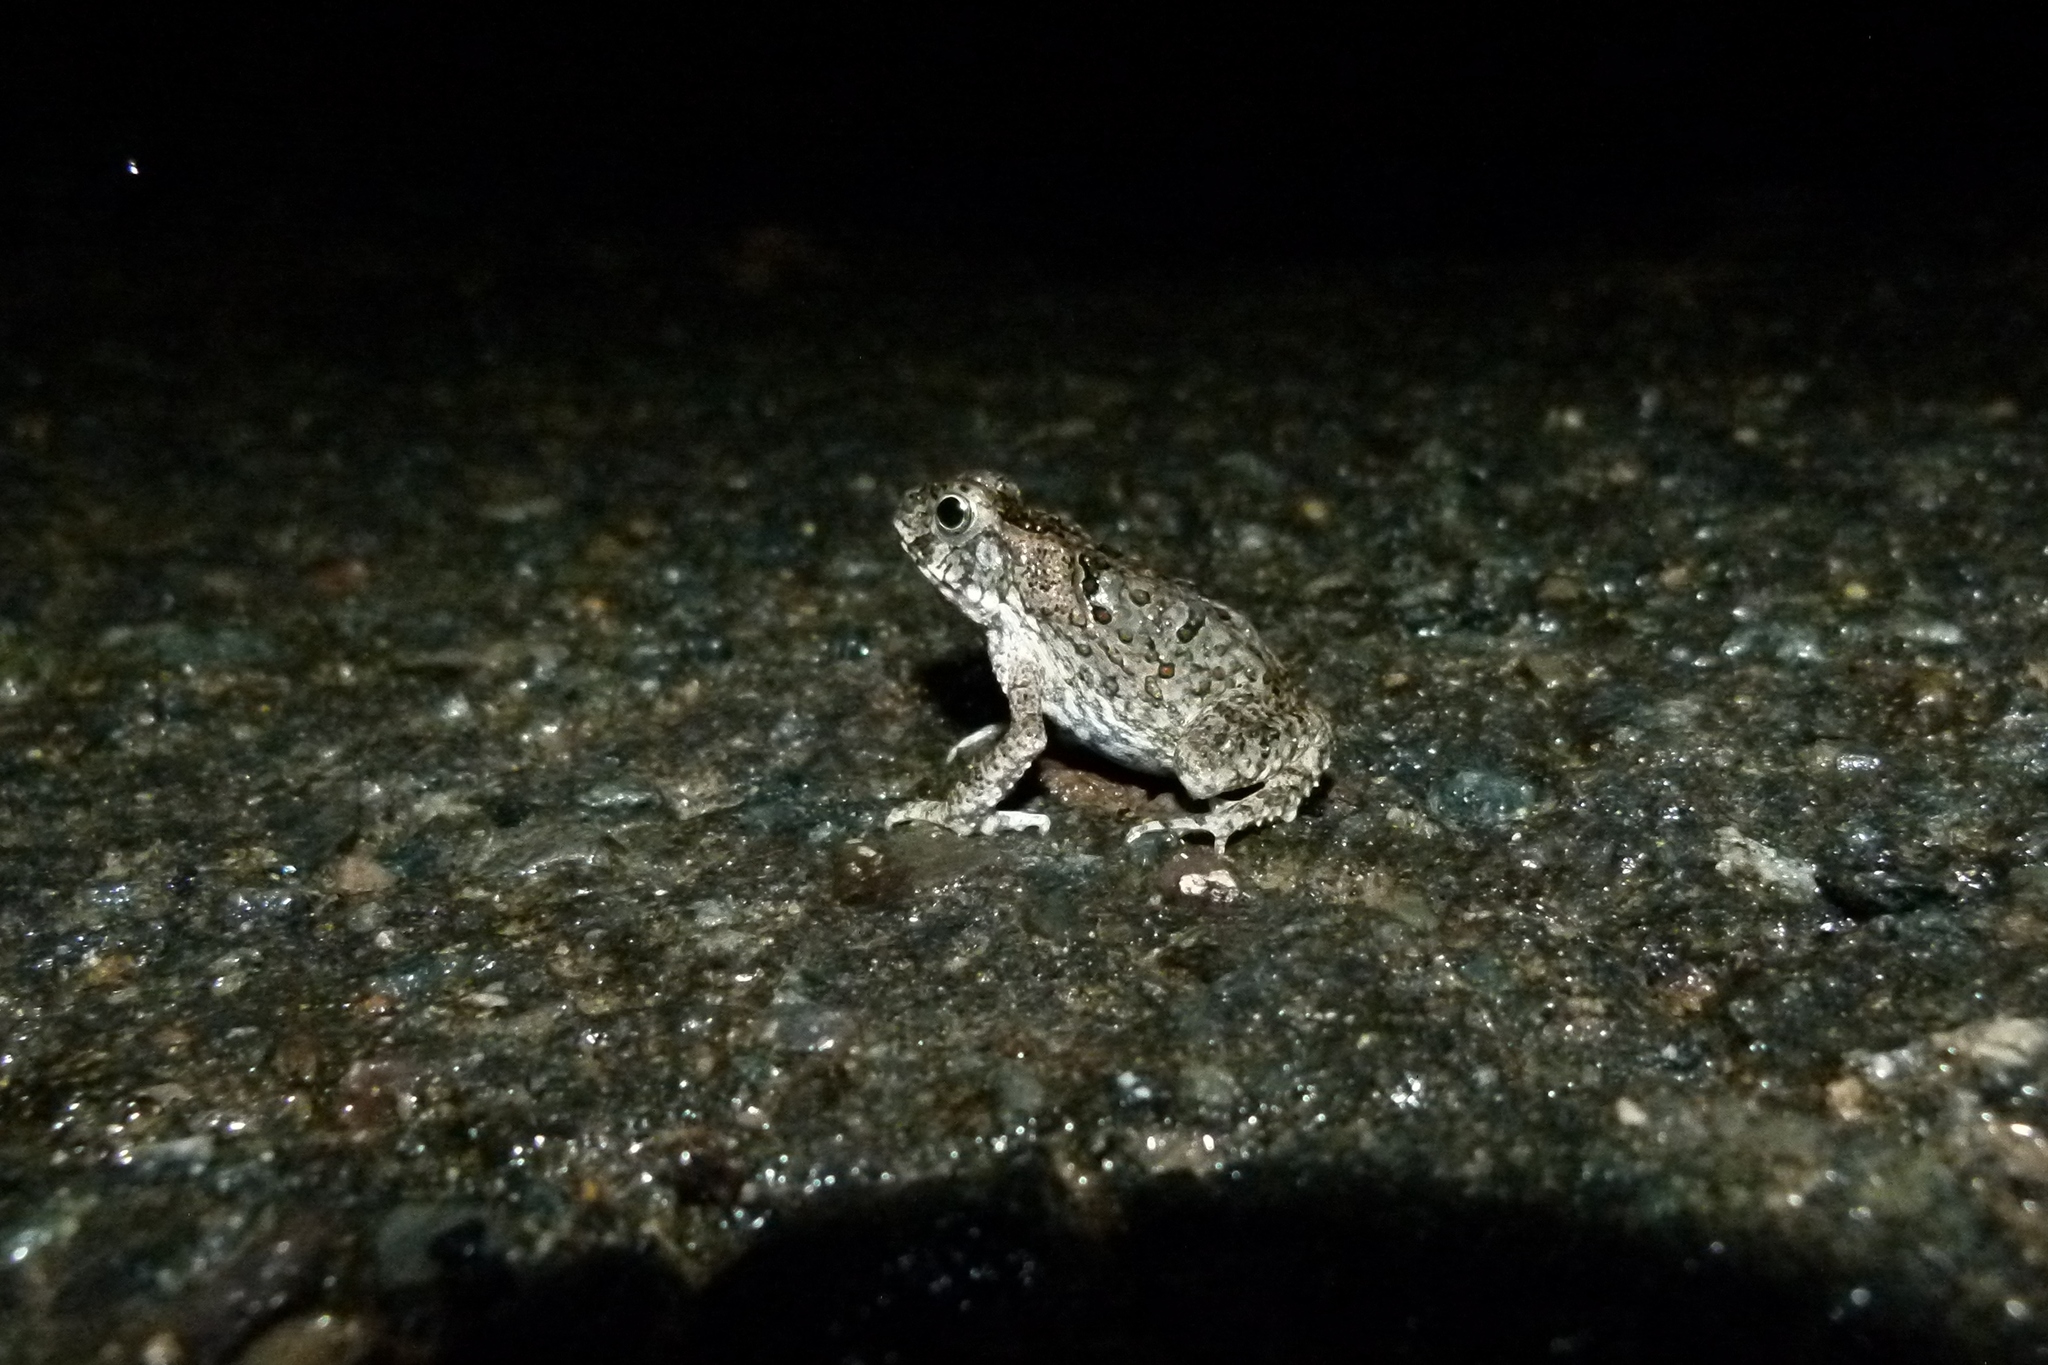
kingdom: Animalia
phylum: Chordata
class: Amphibia
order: Anura
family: Bufonidae
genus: Rhinella
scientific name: Rhinella marina
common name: Cane toad
